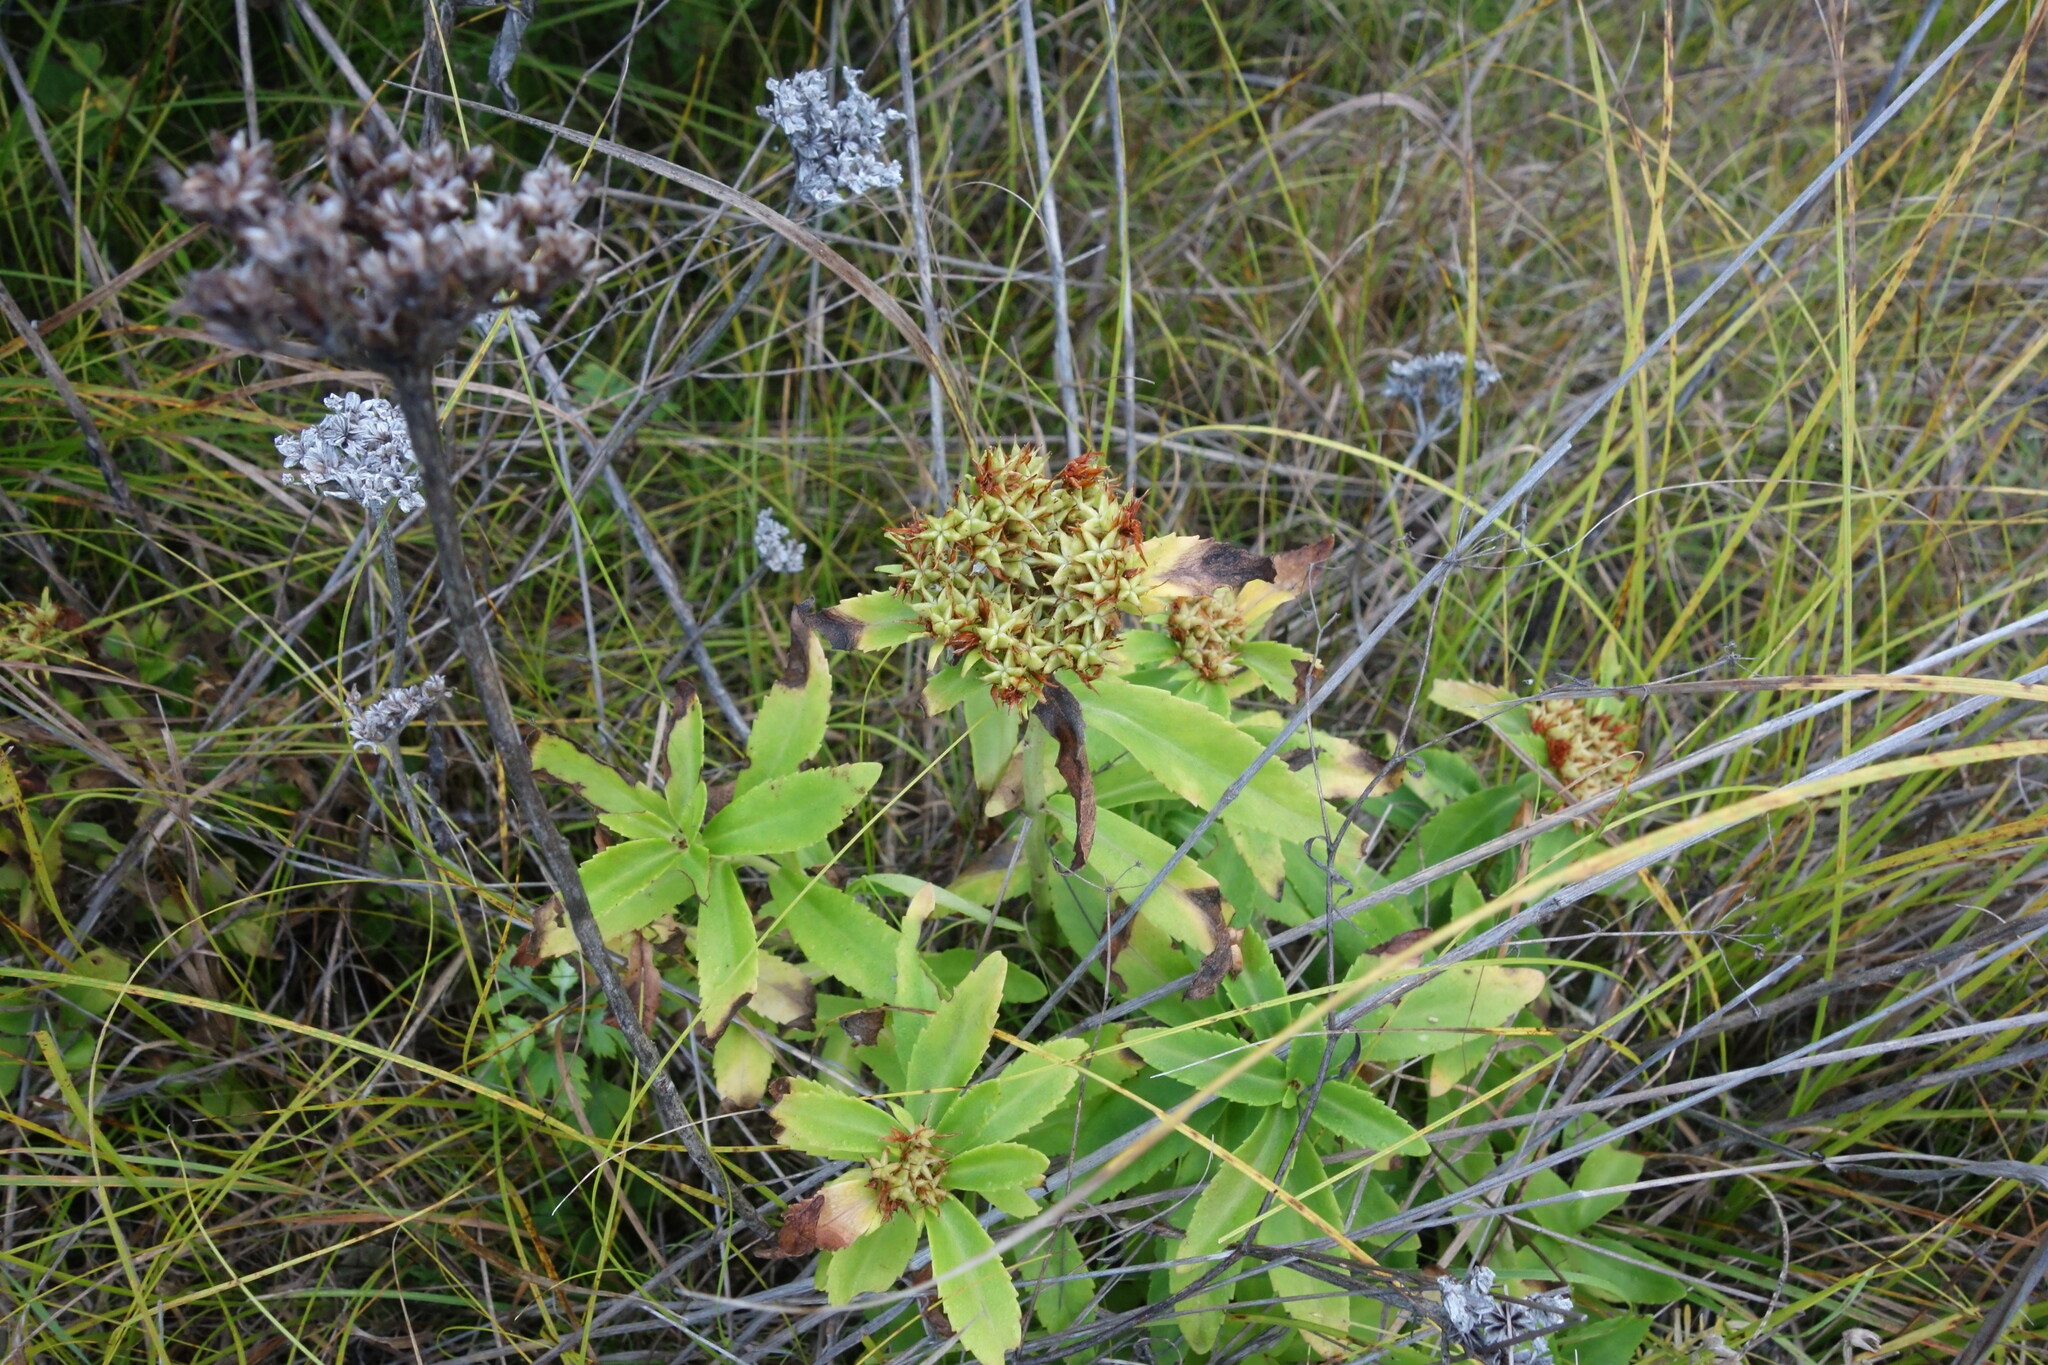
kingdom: Plantae
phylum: Tracheophyta
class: Magnoliopsida
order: Saxifragales
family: Crassulaceae
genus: Phedimus
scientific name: Phedimus aizoon
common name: Orpin aizoon
